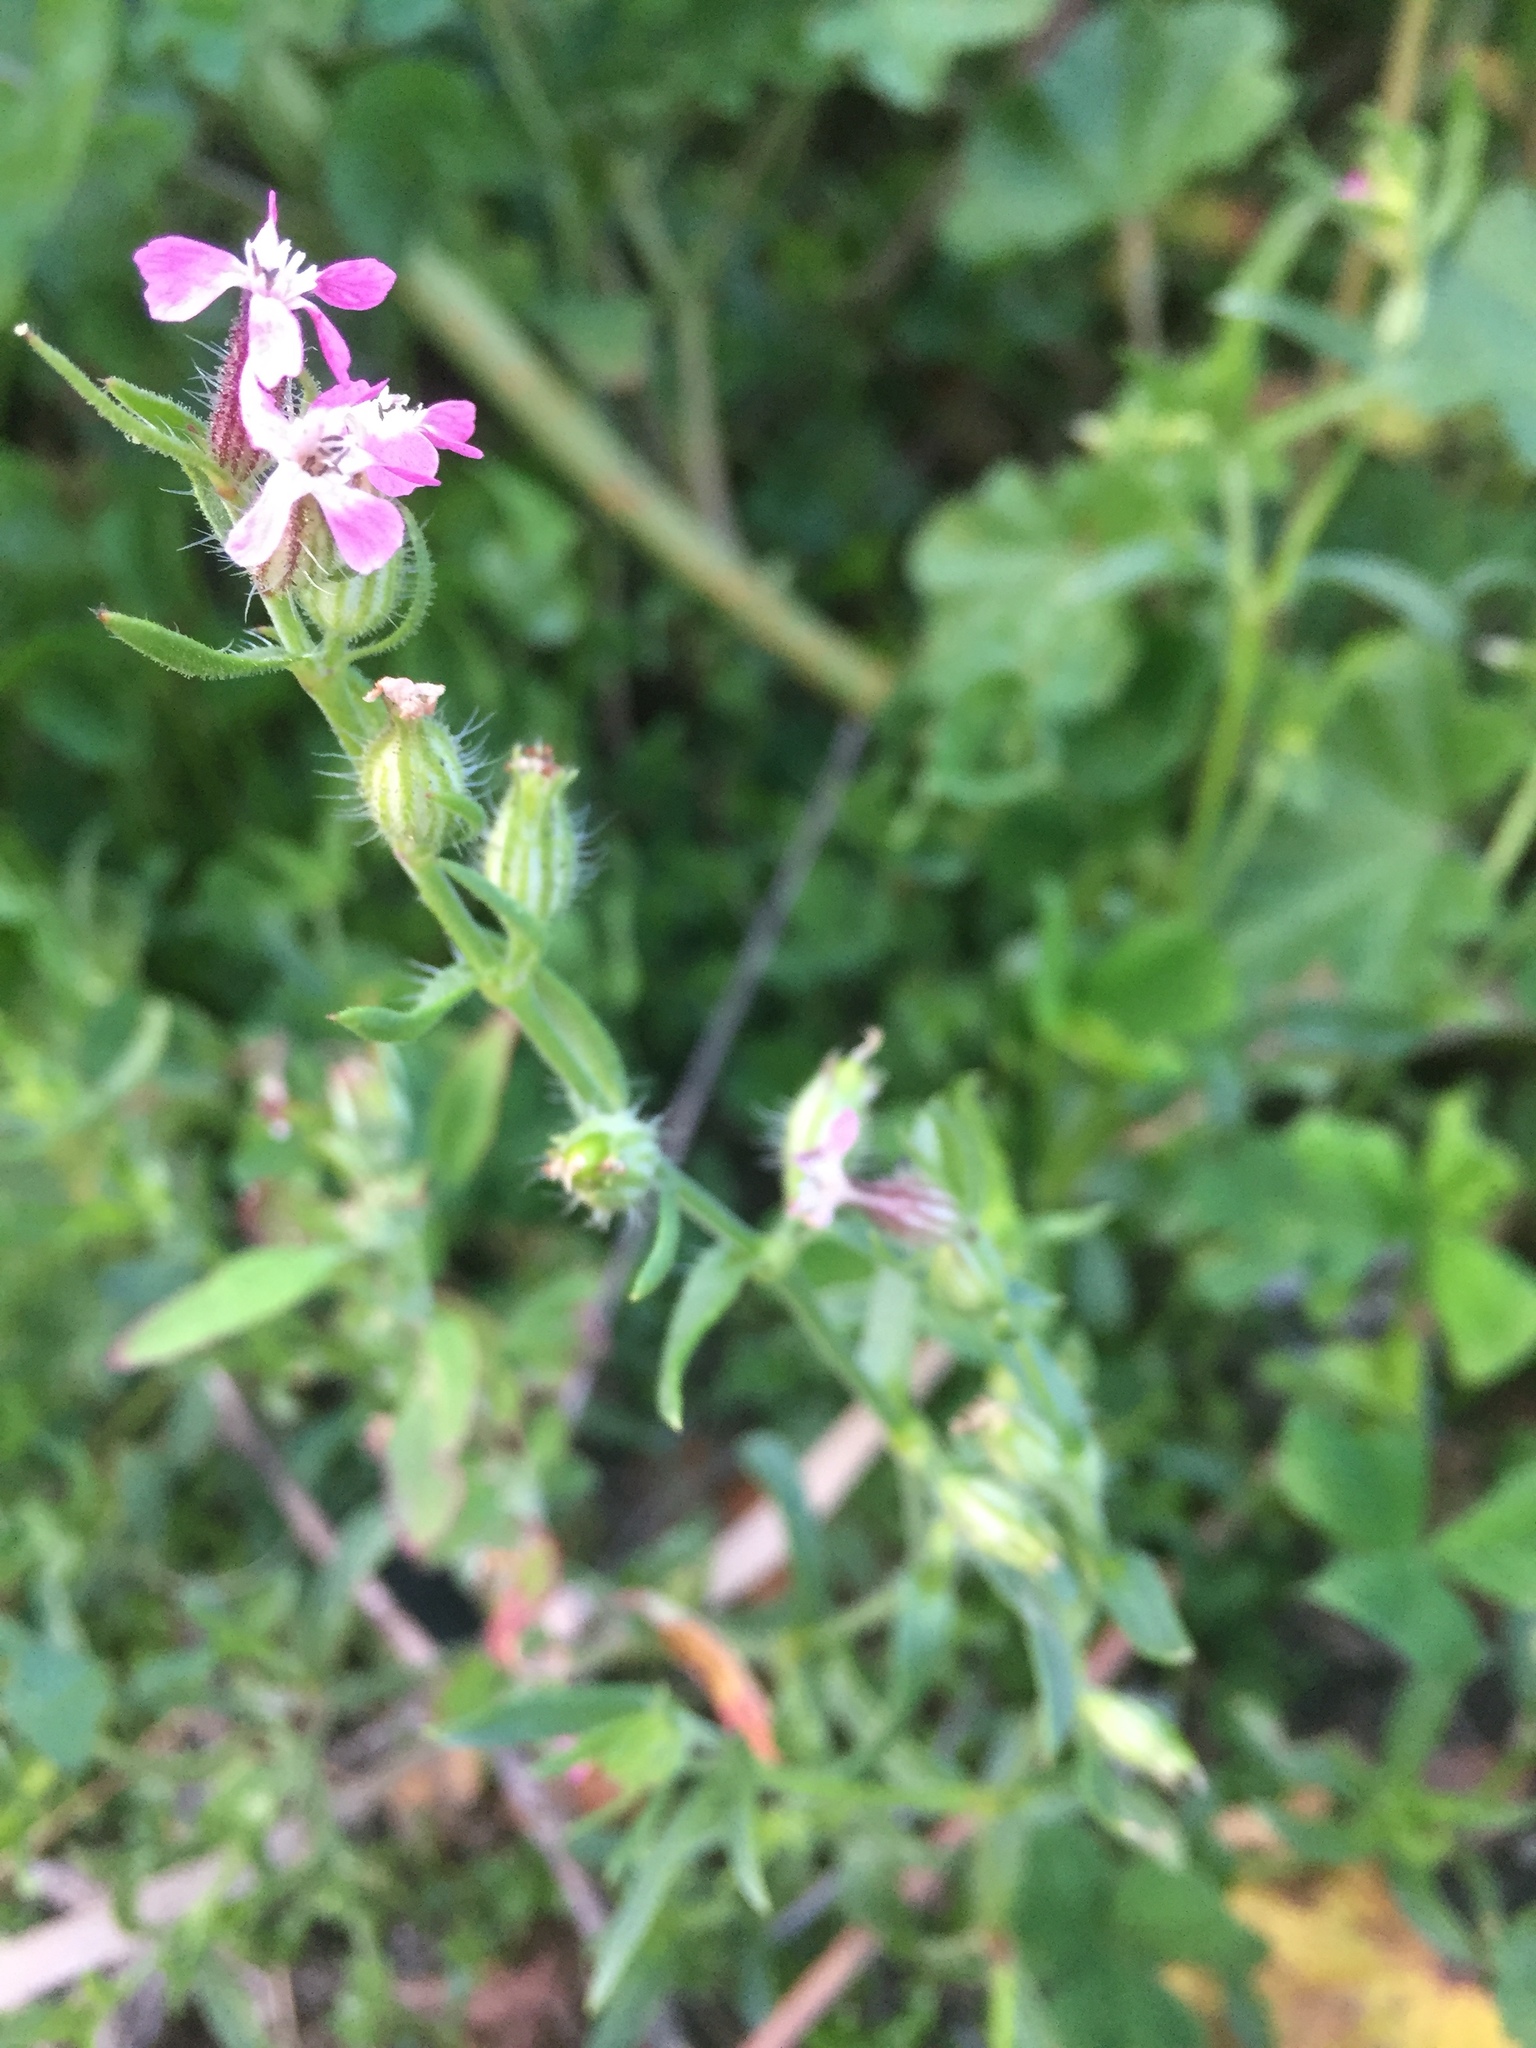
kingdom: Plantae
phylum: Tracheophyta
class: Magnoliopsida
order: Caryophyllales
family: Caryophyllaceae
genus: Silene
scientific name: Silene gallica
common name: Small-flowered catchfly
